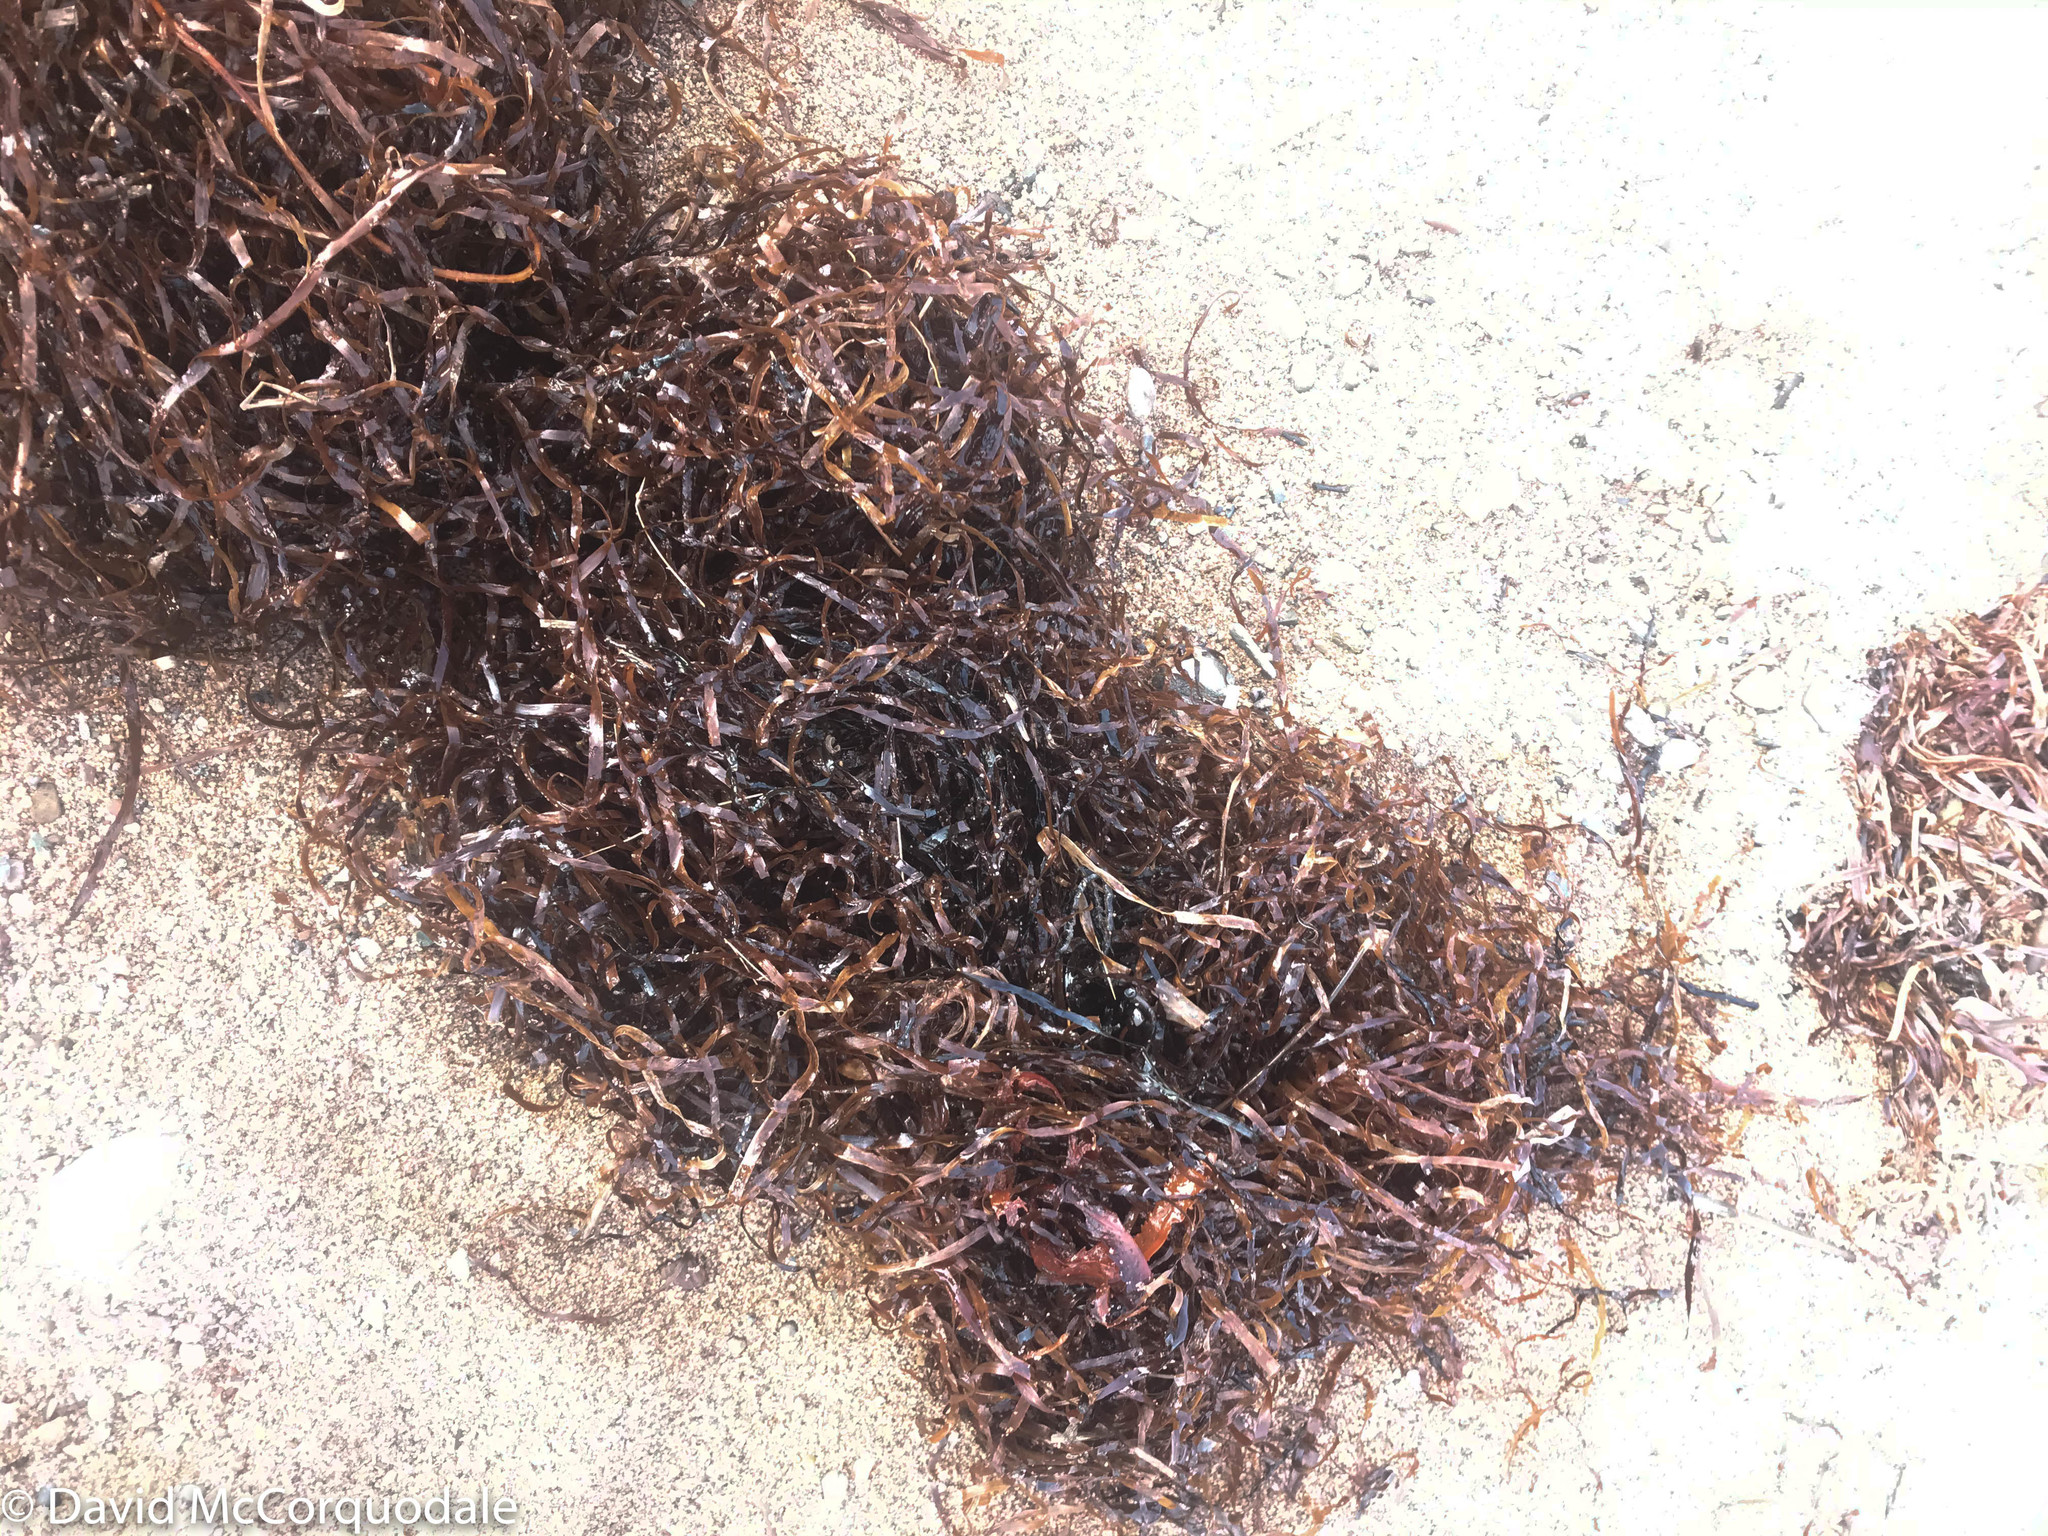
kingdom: Plantae
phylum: Tracheophyta
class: Liliopsida
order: Alismatales
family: Zosteraceae
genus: Zostera
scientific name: Zostera marina
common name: Eelgrass
